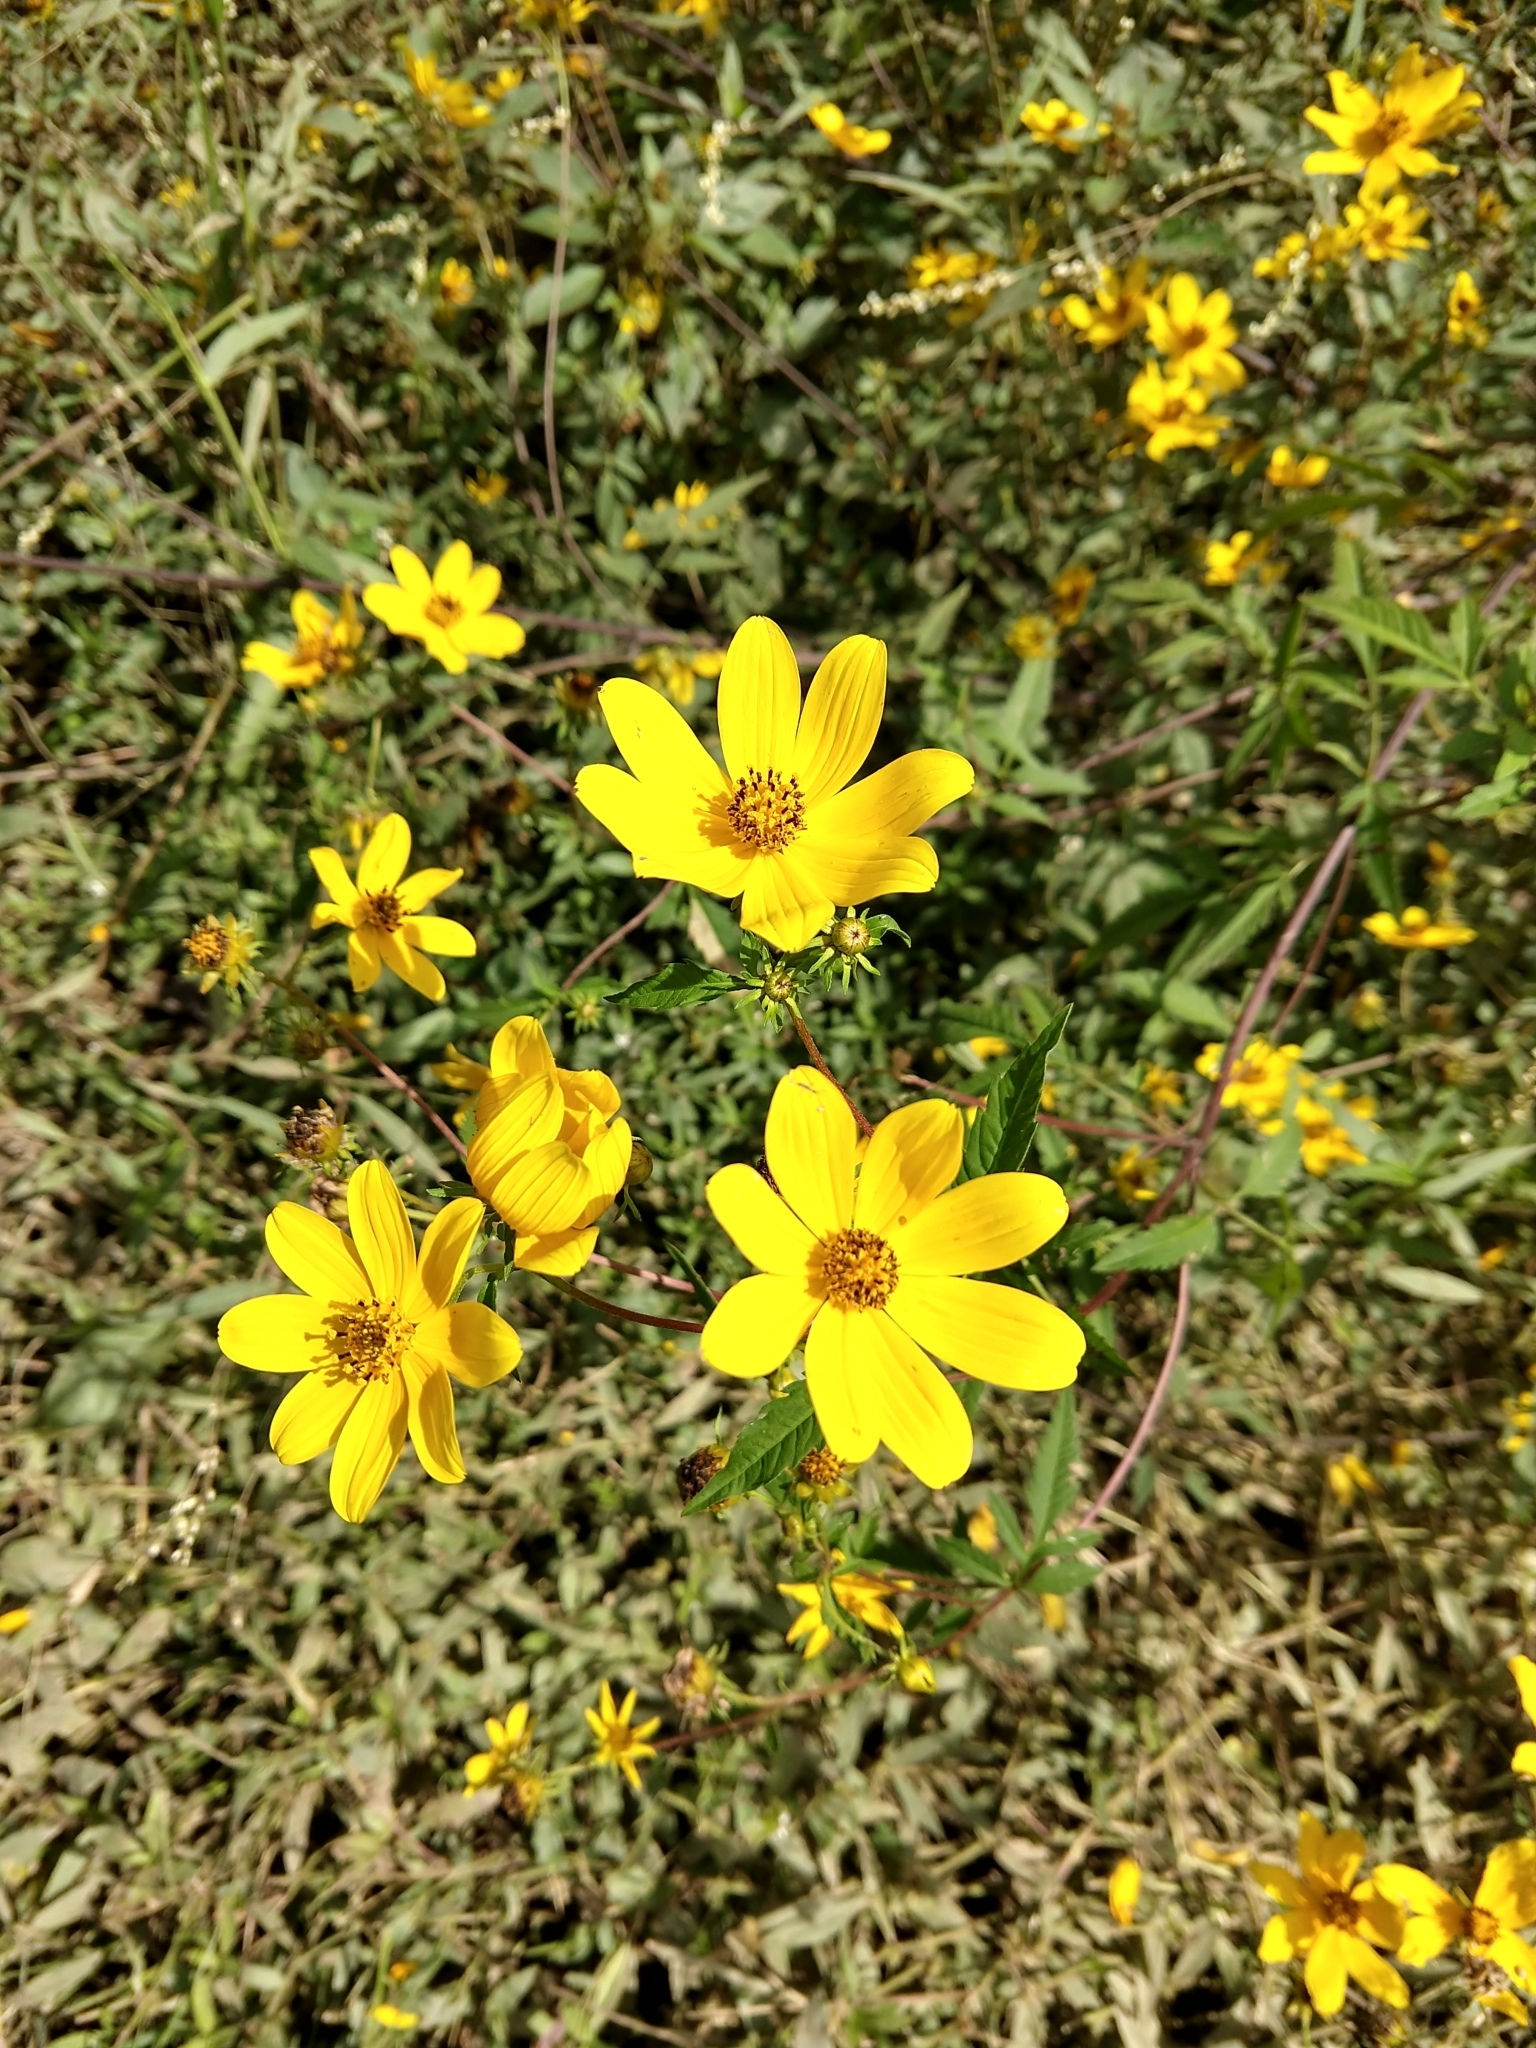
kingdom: Plantae
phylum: Tracheophyta
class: Magnoliopsida
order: Asterales
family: Asteraceae
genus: Bidens
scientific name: Bidens aristosa
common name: Western tickseed
